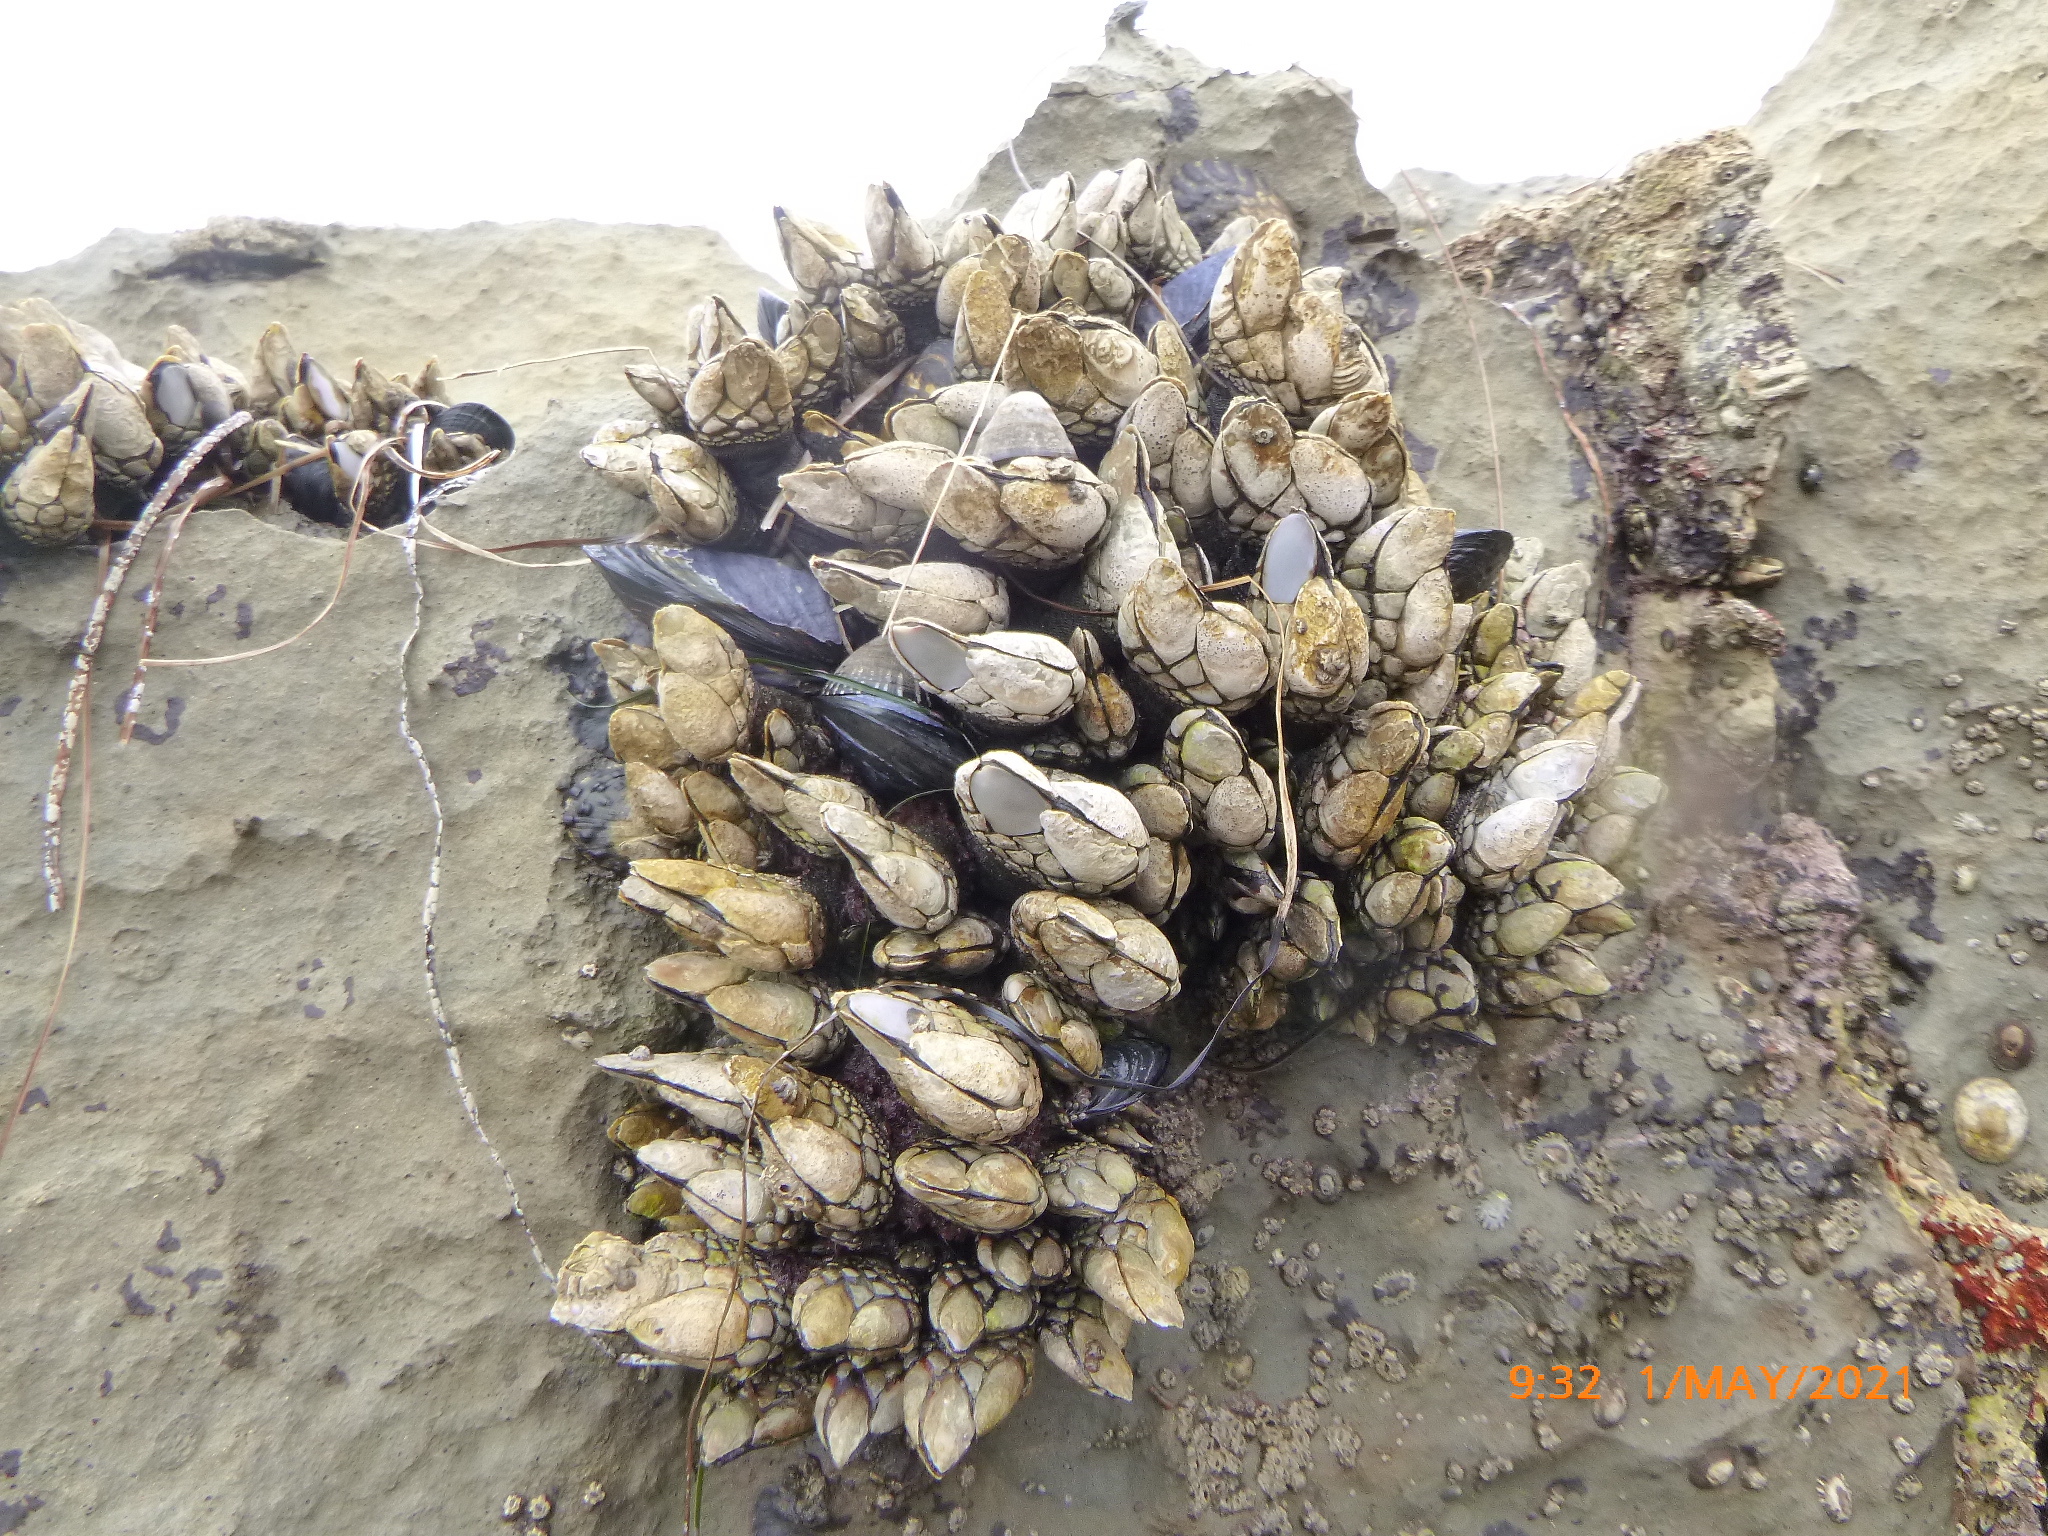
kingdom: Animalia
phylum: Arthropoda
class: Maxillopoda
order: Pedunculata
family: Pollicipedidae
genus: Pollicipes
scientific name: Pollicipes polymerus
